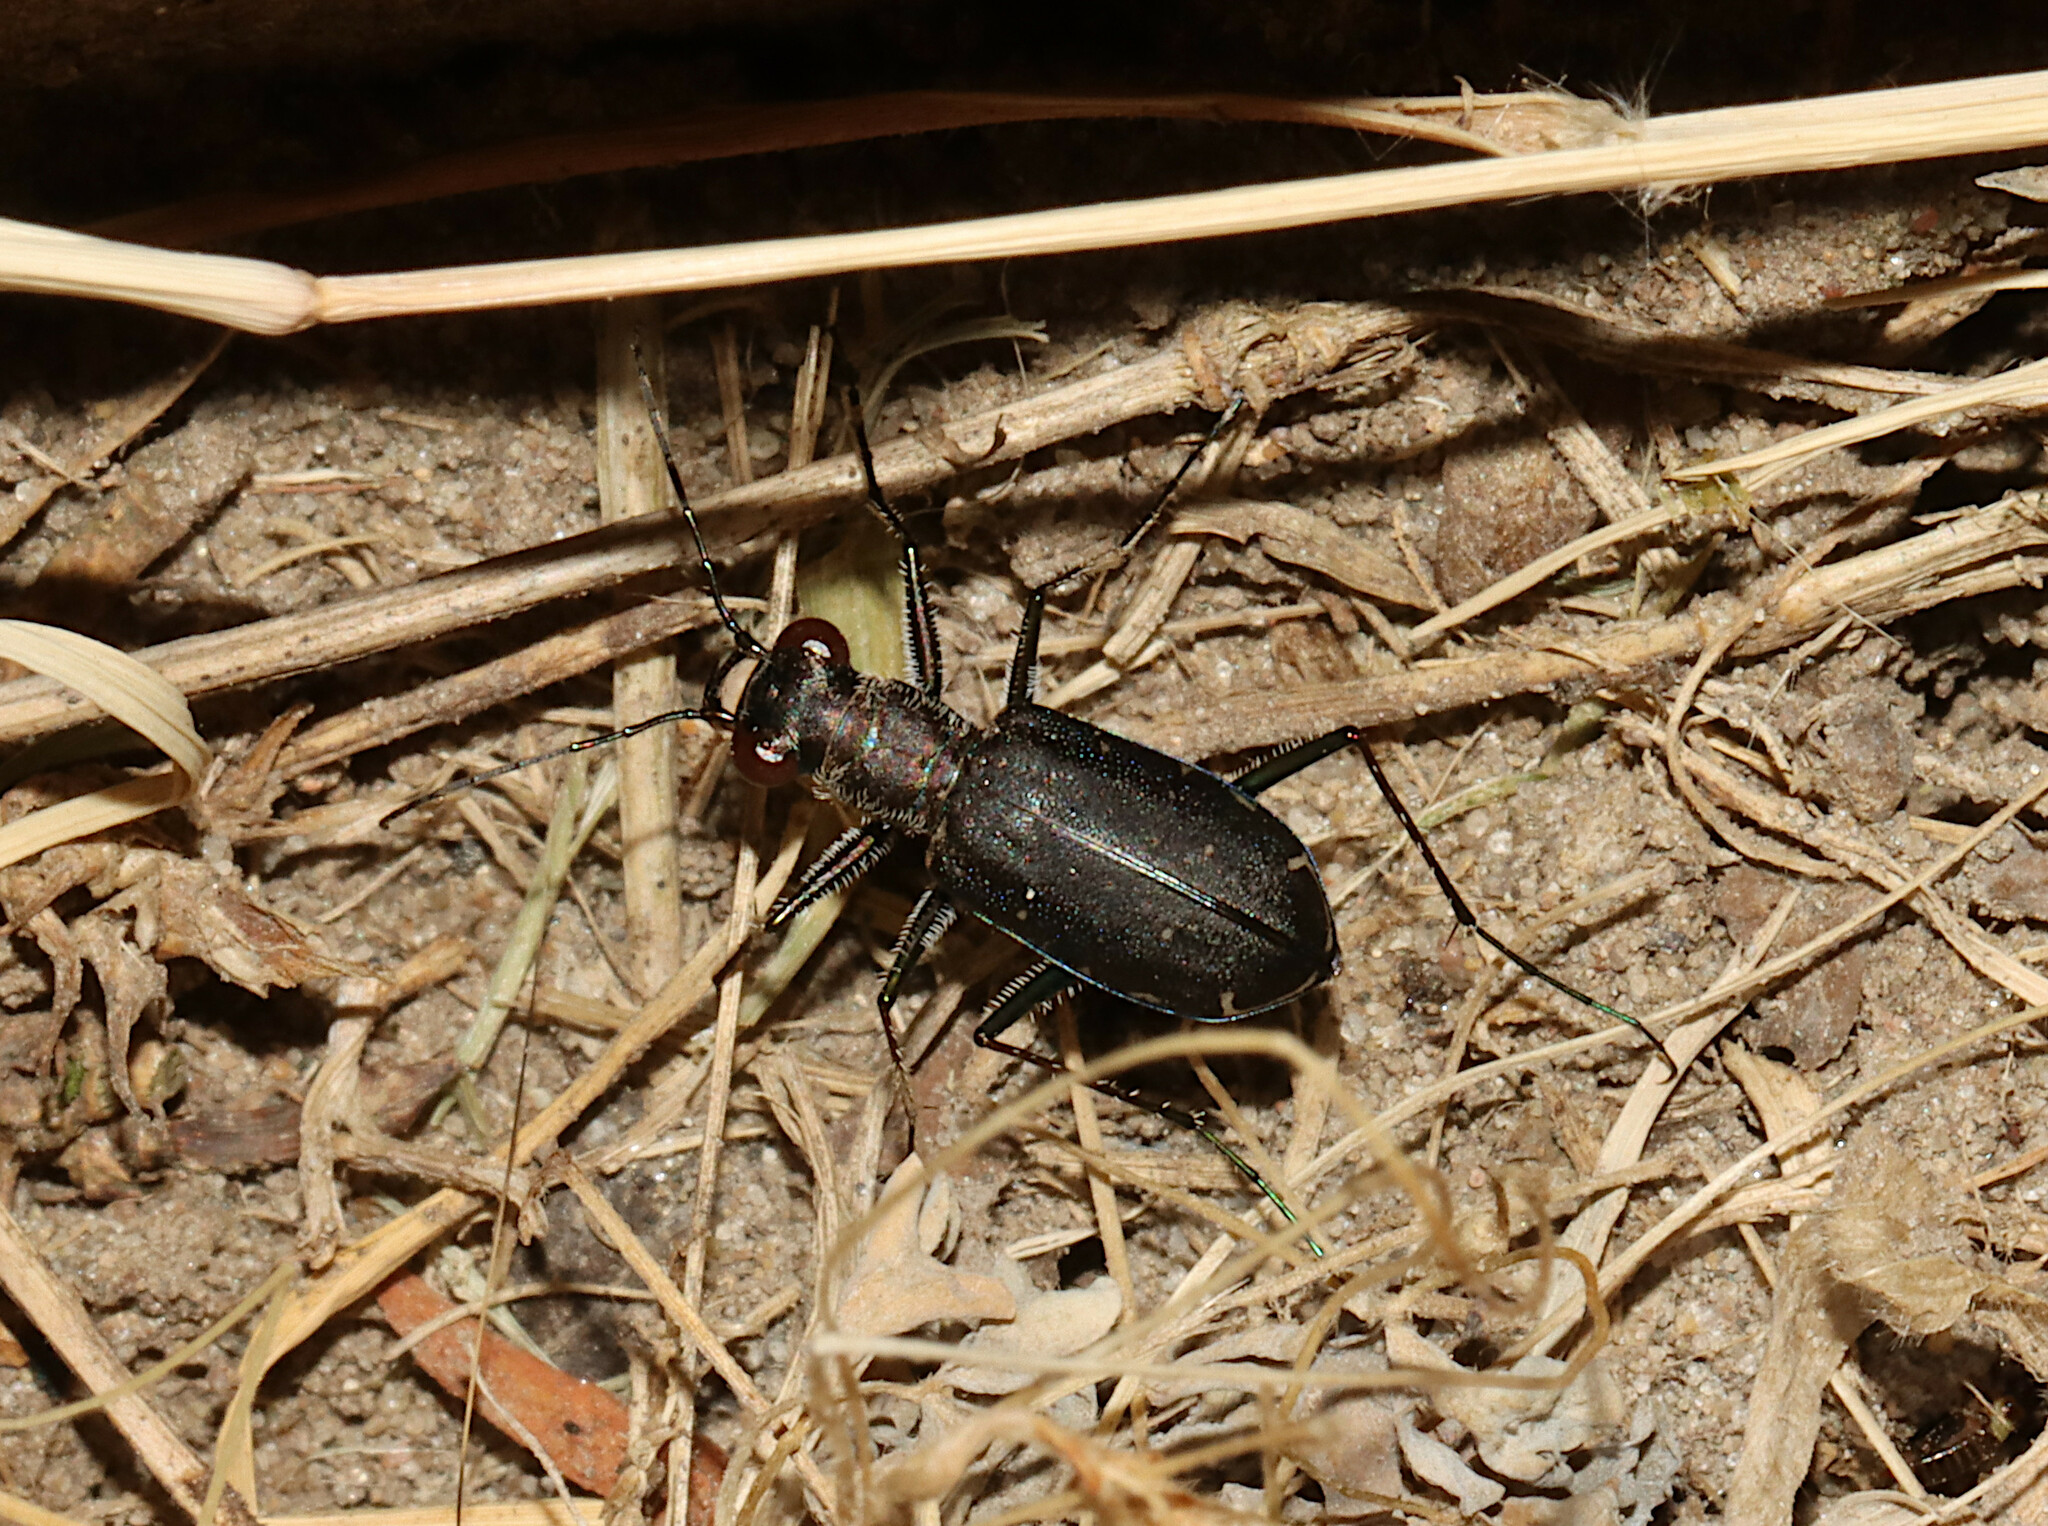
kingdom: Animalia
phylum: Arthropoda
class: Insecta
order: Coleoptera
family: Carabidae
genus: Cicindela
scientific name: Cicindela punctulata
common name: Punctured tiger beetle
